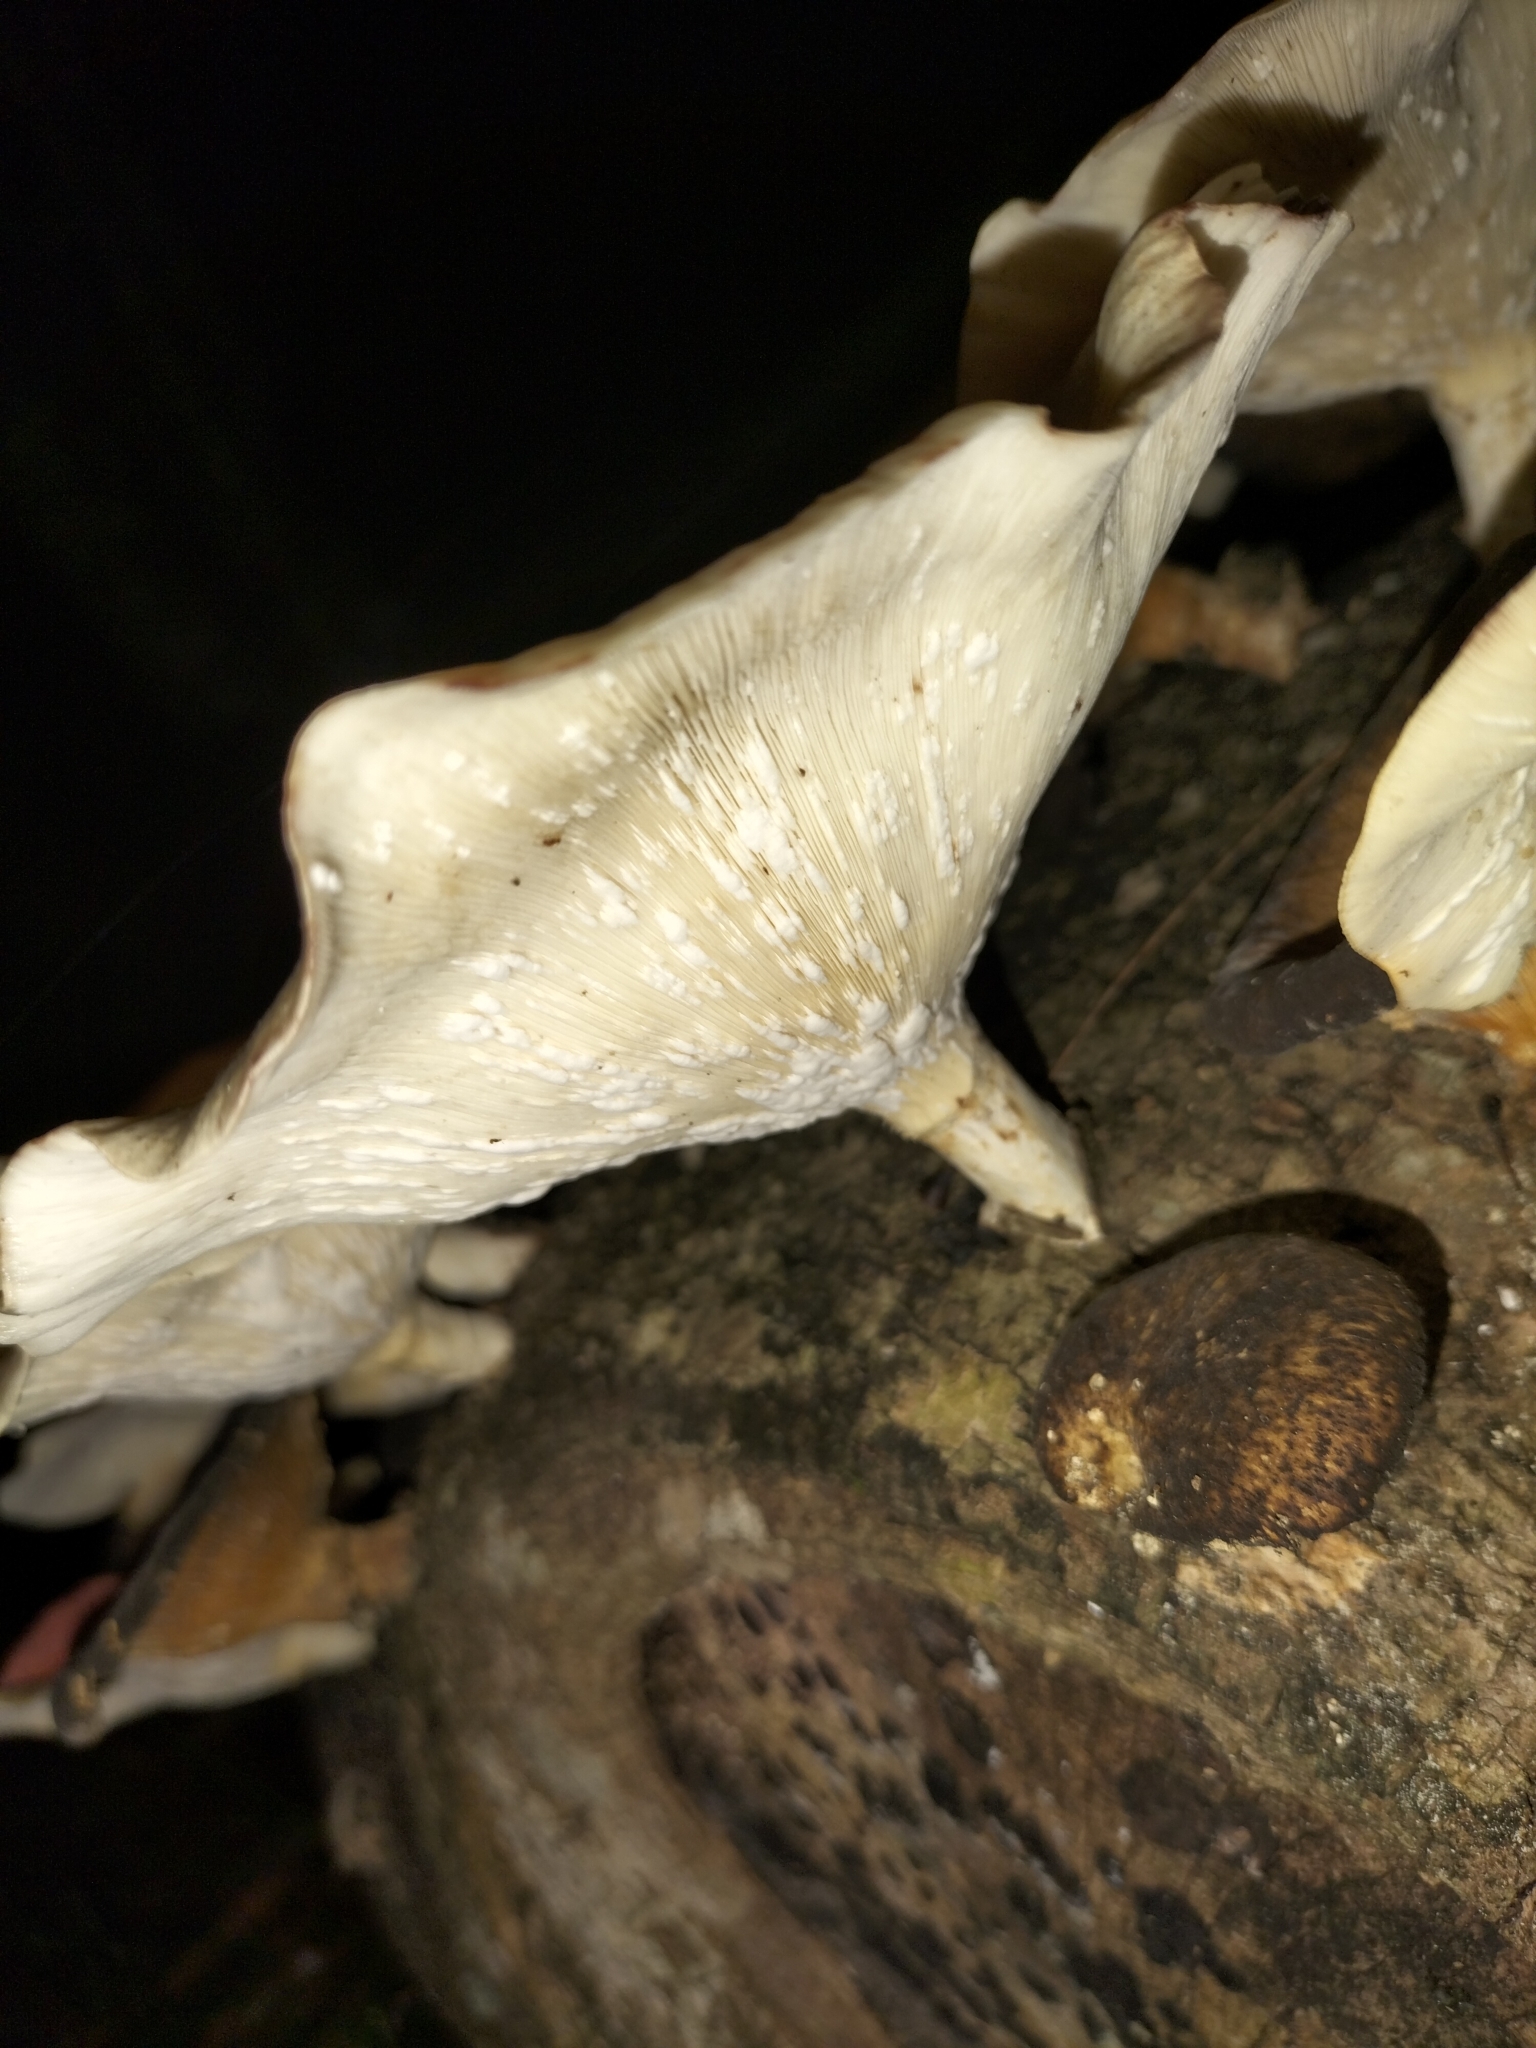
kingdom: Fungi
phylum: Basidiomycota
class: Agaricomycetes
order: Polyporales
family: Polyporaceae
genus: Lentinus
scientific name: Lentinus sajor-caju
